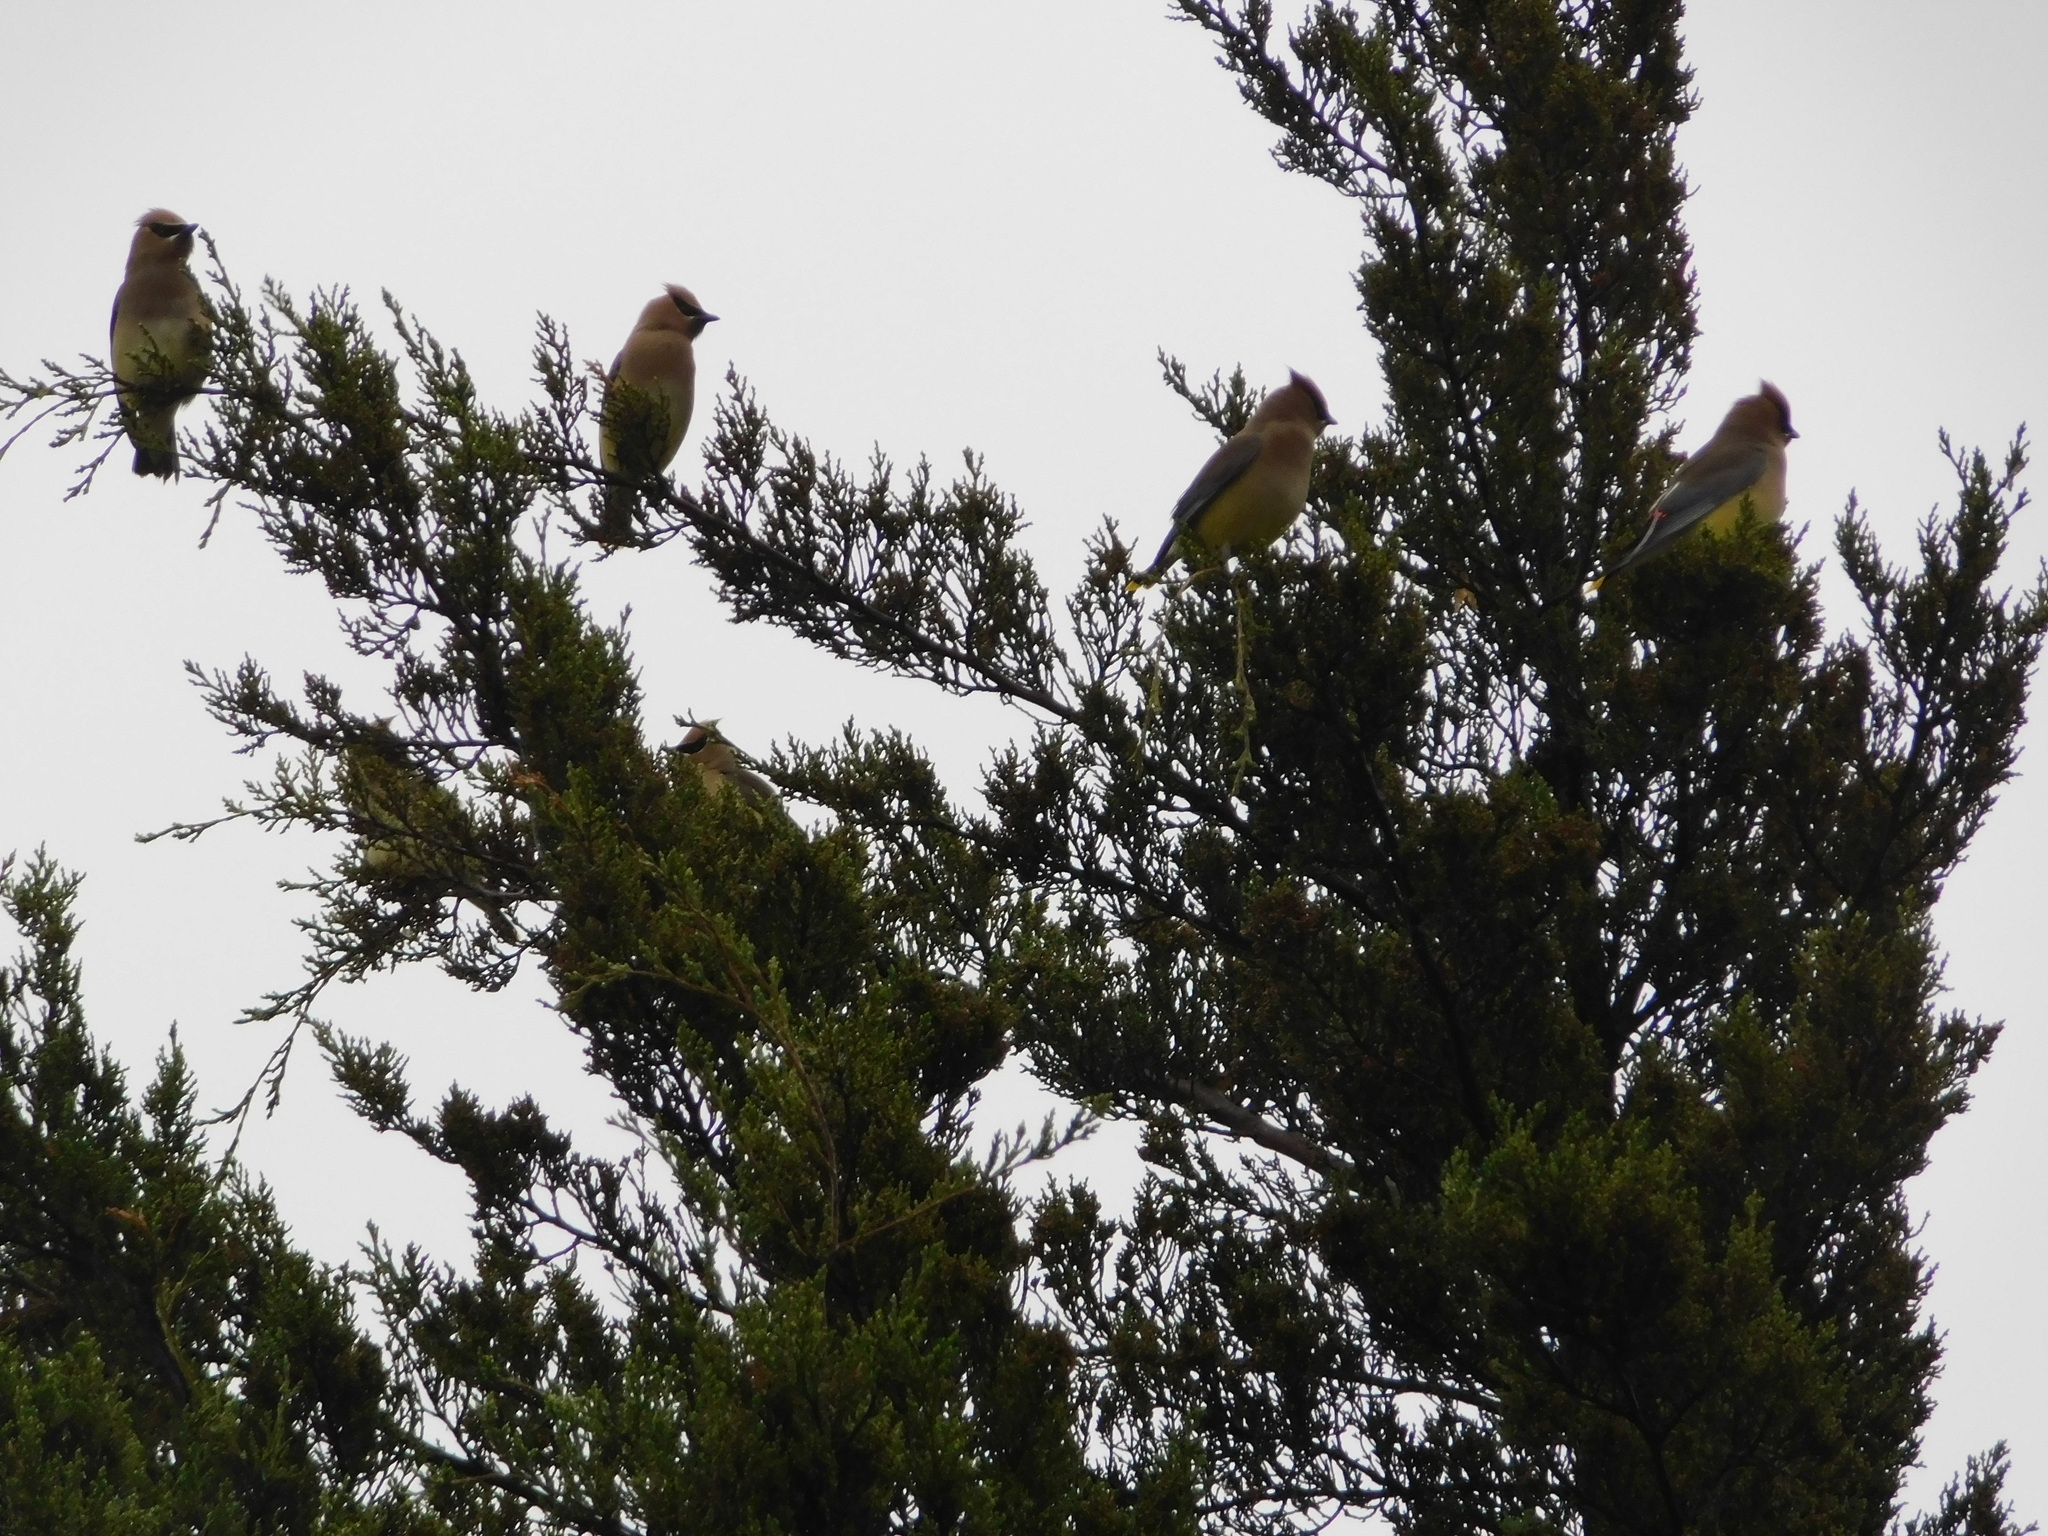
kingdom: Animalia
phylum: Chordata
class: Aves
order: Passeriformes
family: Bombycillidae
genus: Bombycilla
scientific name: Bombycilla cedrorum
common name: Cedar waxwing
